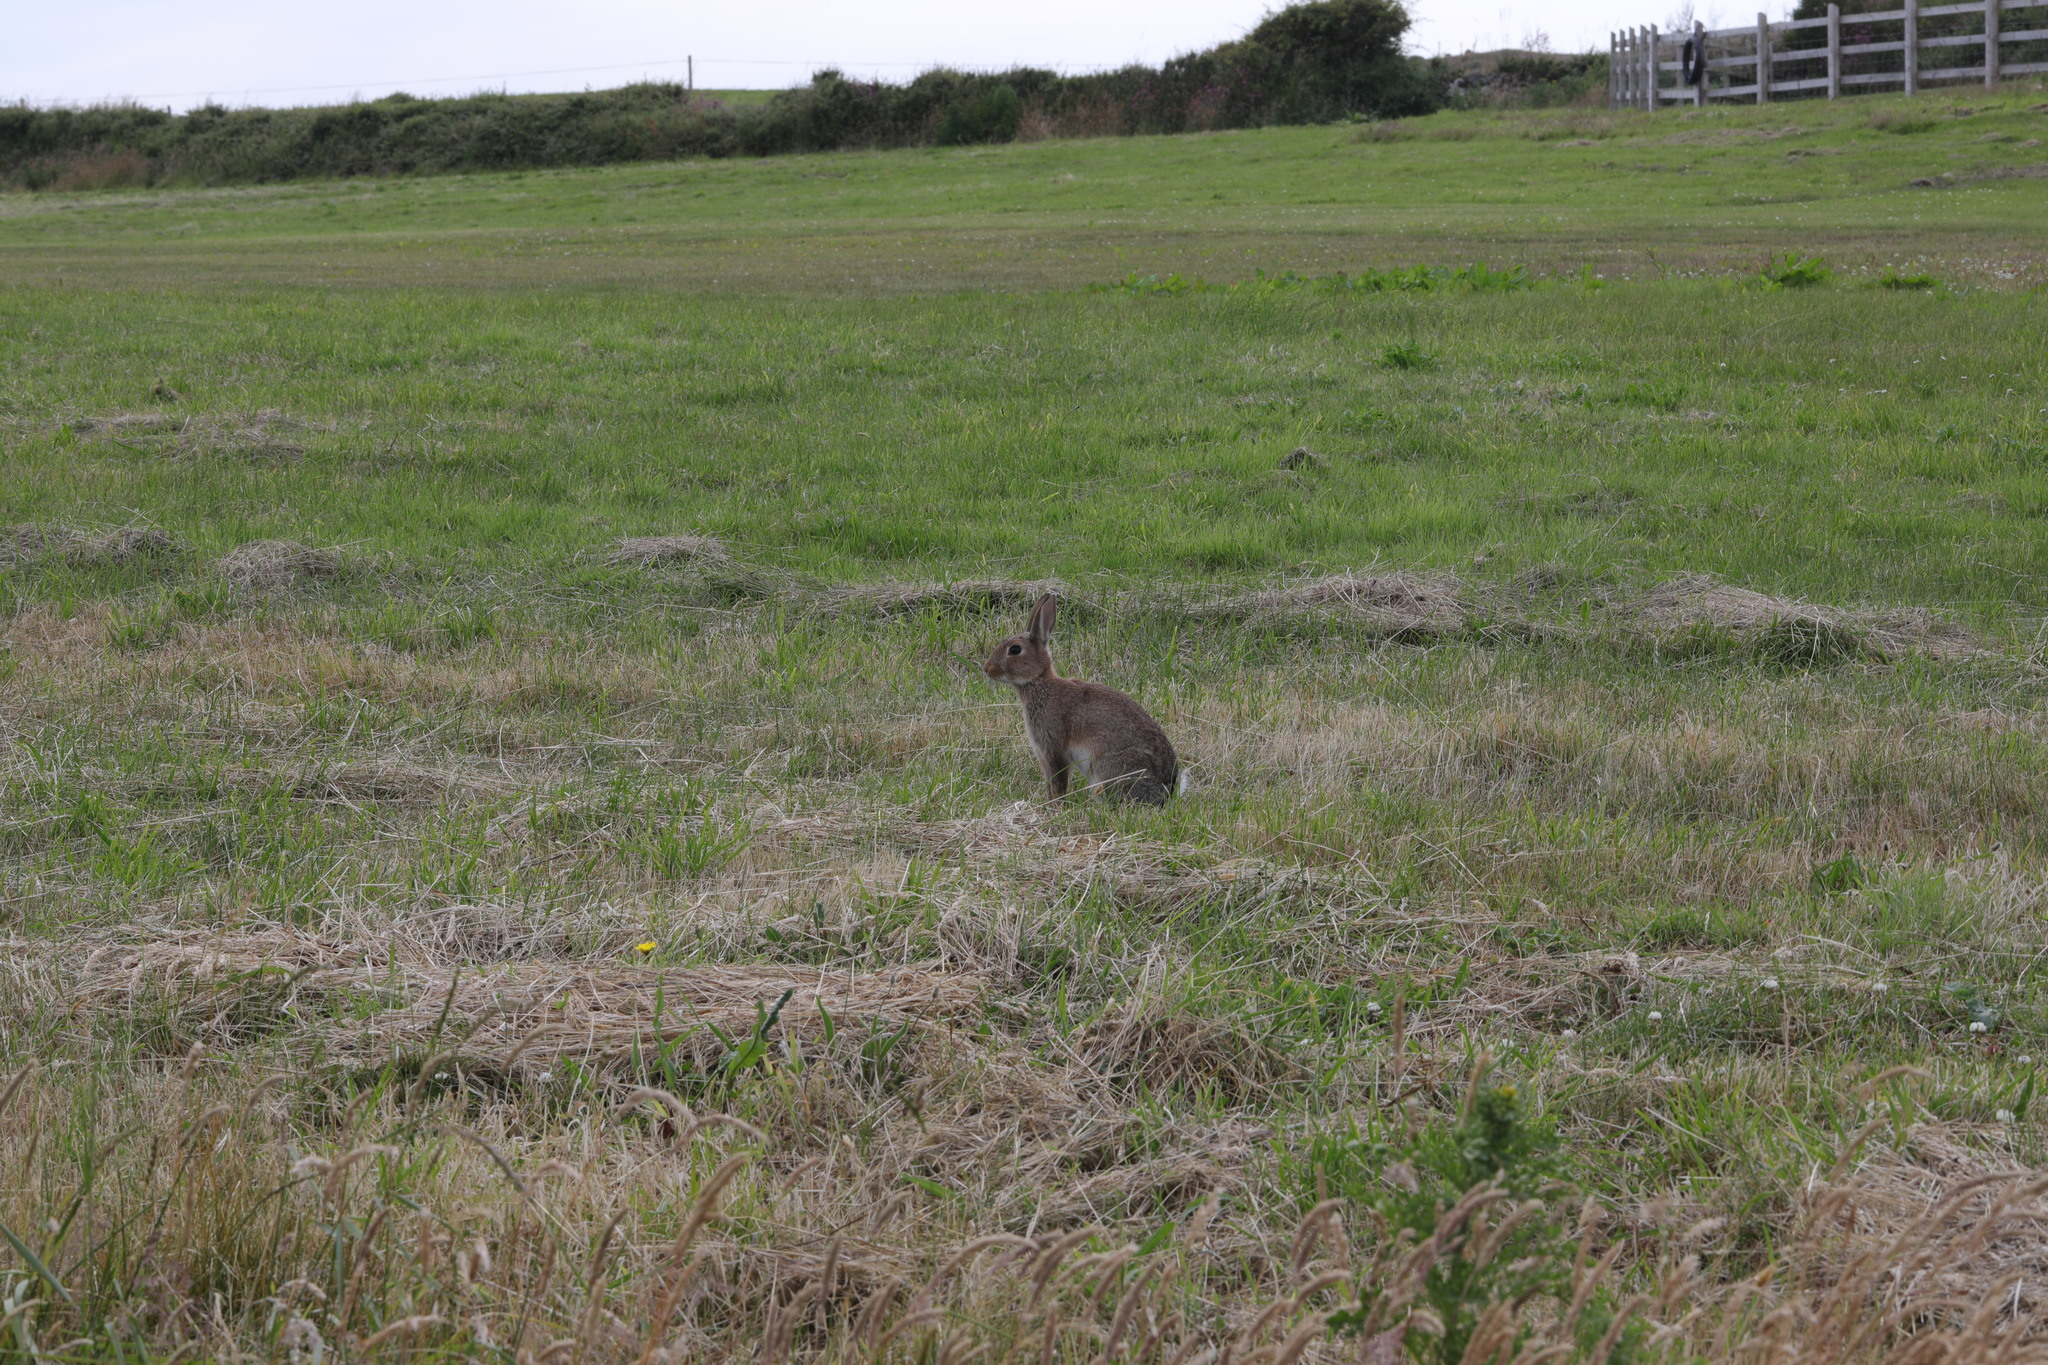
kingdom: Animalia
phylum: Chordata
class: Mammalia
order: Lagomorpha
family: Leporidae
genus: Oryctolagus
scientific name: Oryctolagus cuniculus
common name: European rabbit
